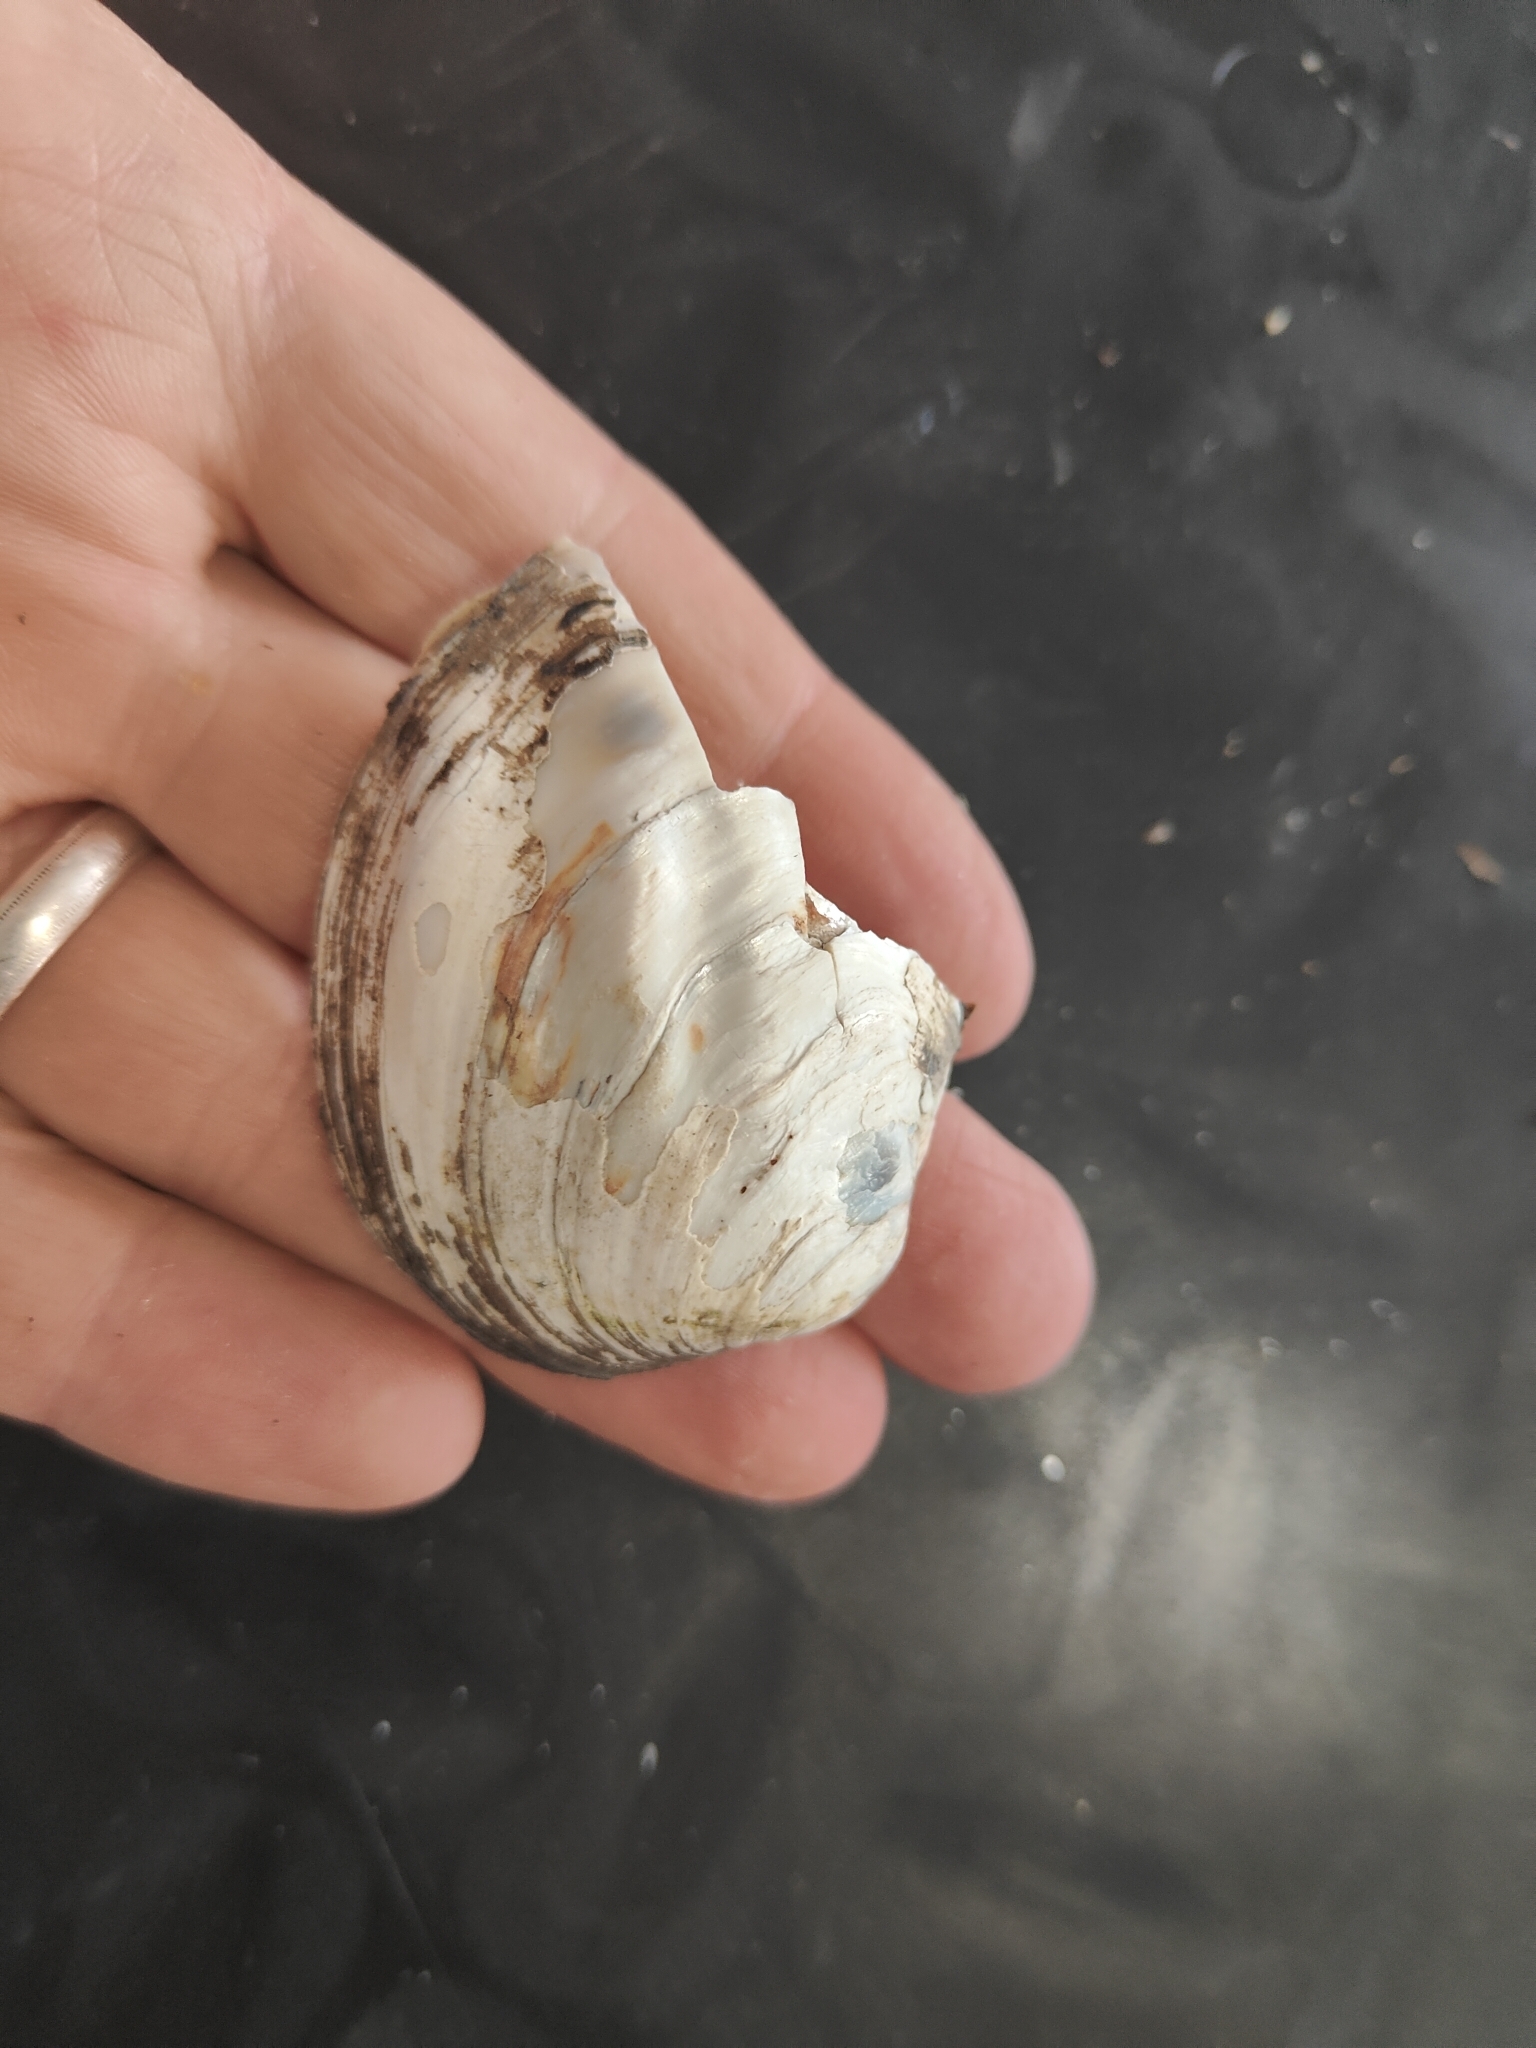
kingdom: Animalia
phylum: Mollusca
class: Bivalvia
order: Unionida
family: Unionidae
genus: Amblema
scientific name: Amblema plicata
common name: Threeridge
